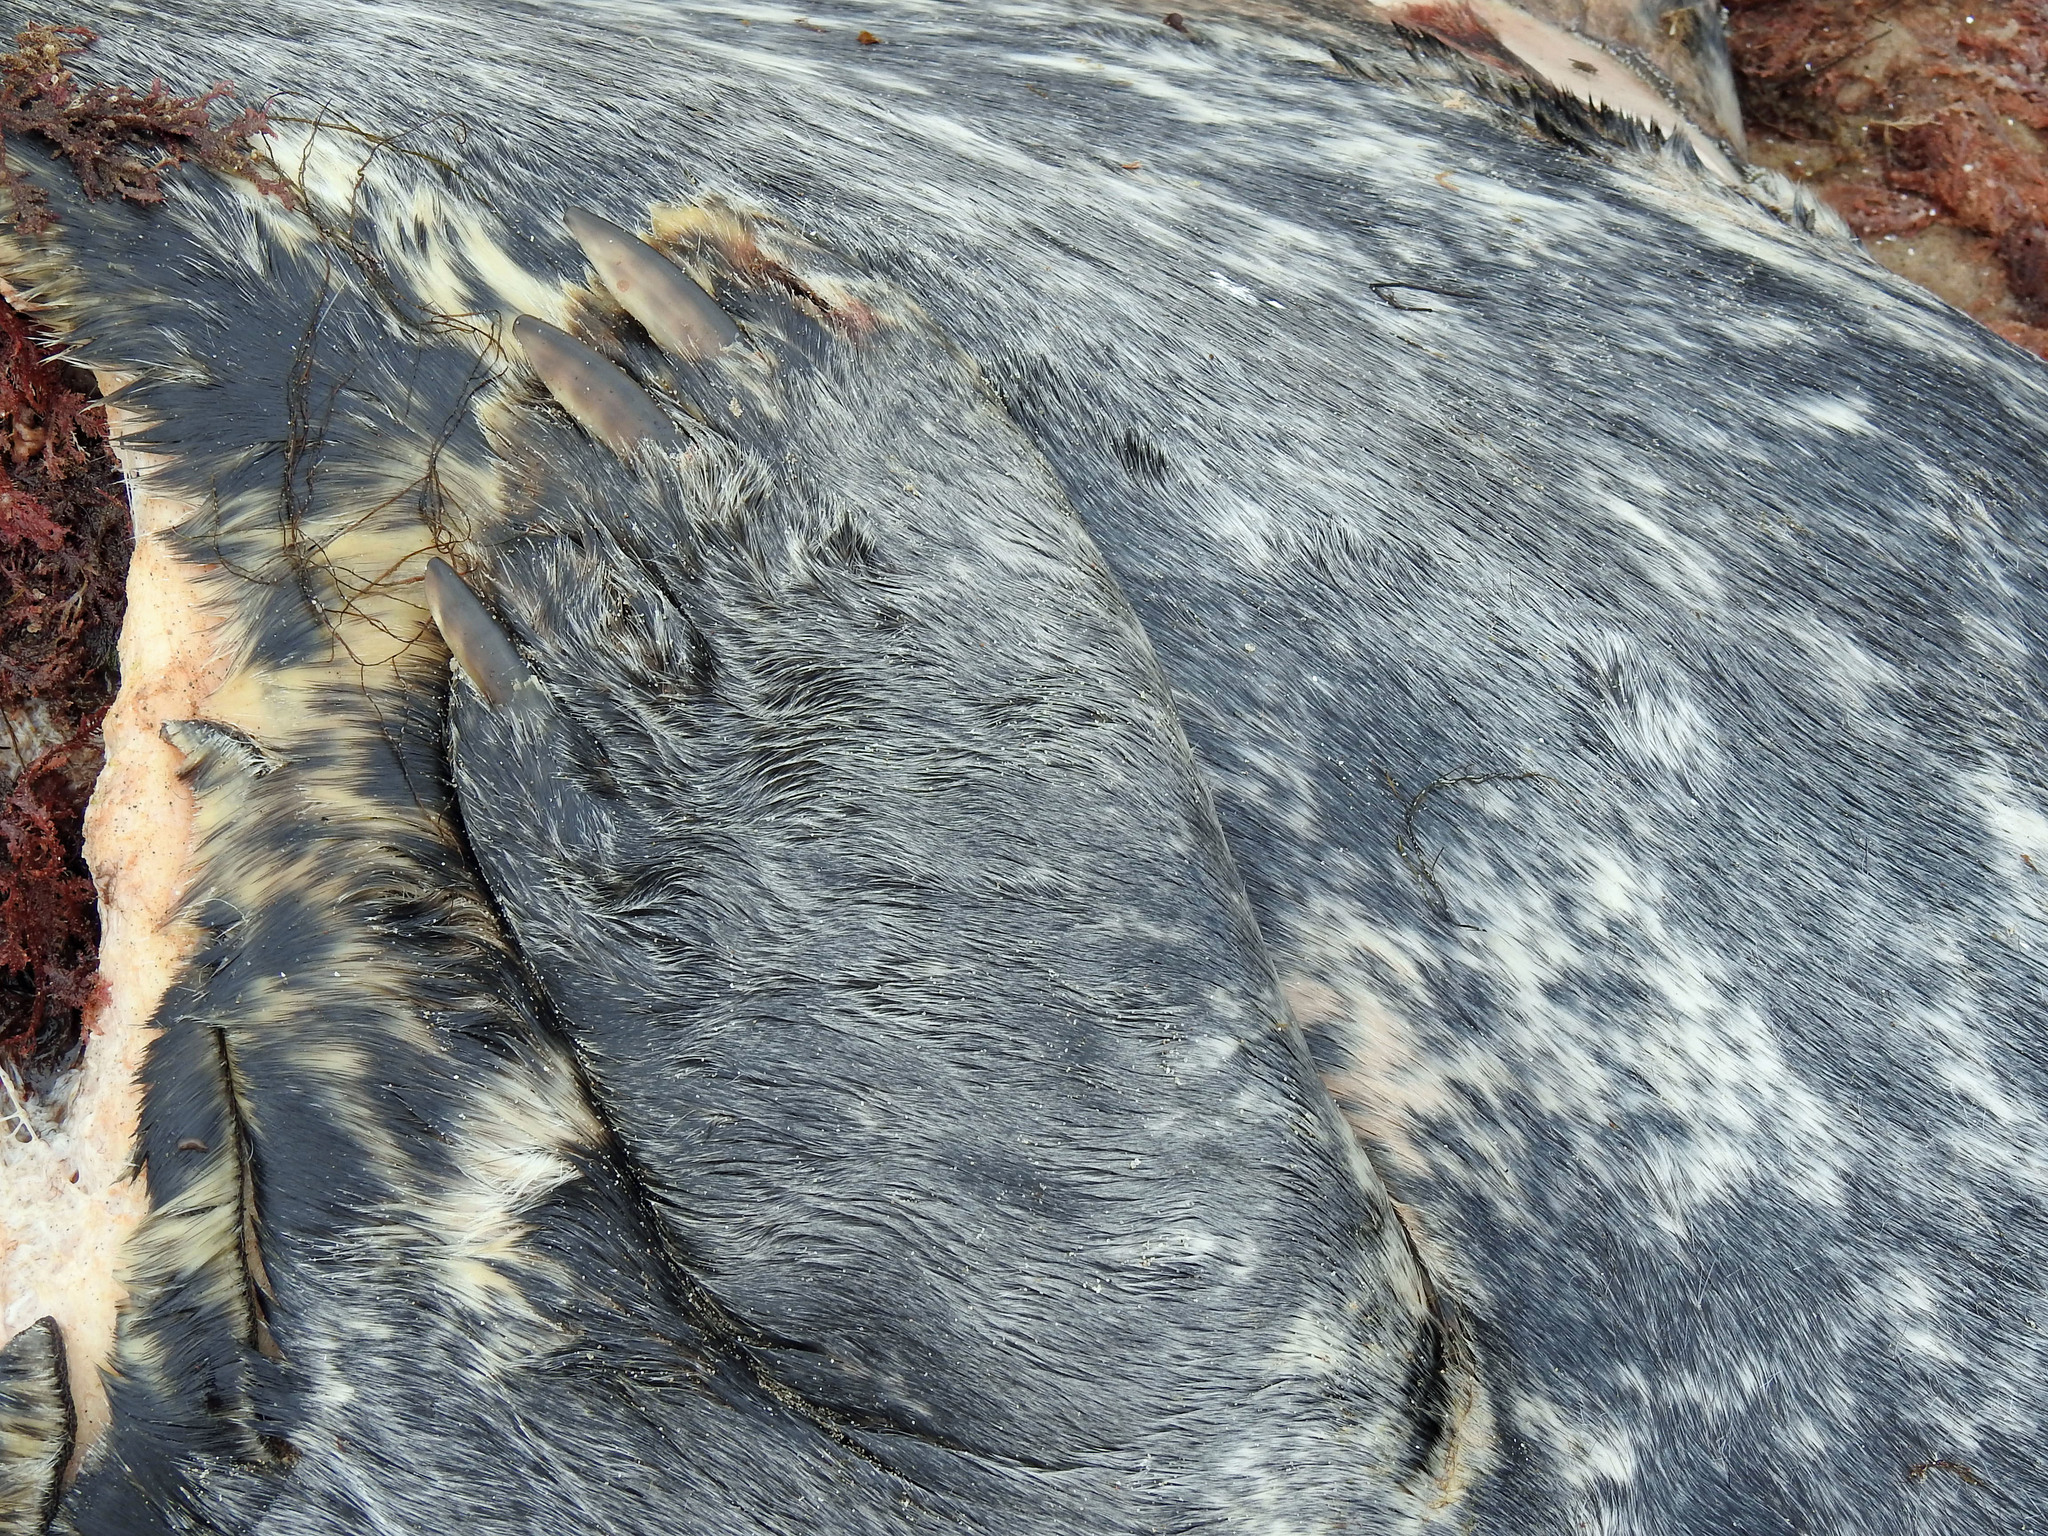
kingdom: Animalia
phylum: Chordata
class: Mammalia
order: Carnivora
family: Phocidae
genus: Halichoerus
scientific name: Halichoerus grypus
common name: Grey seal
